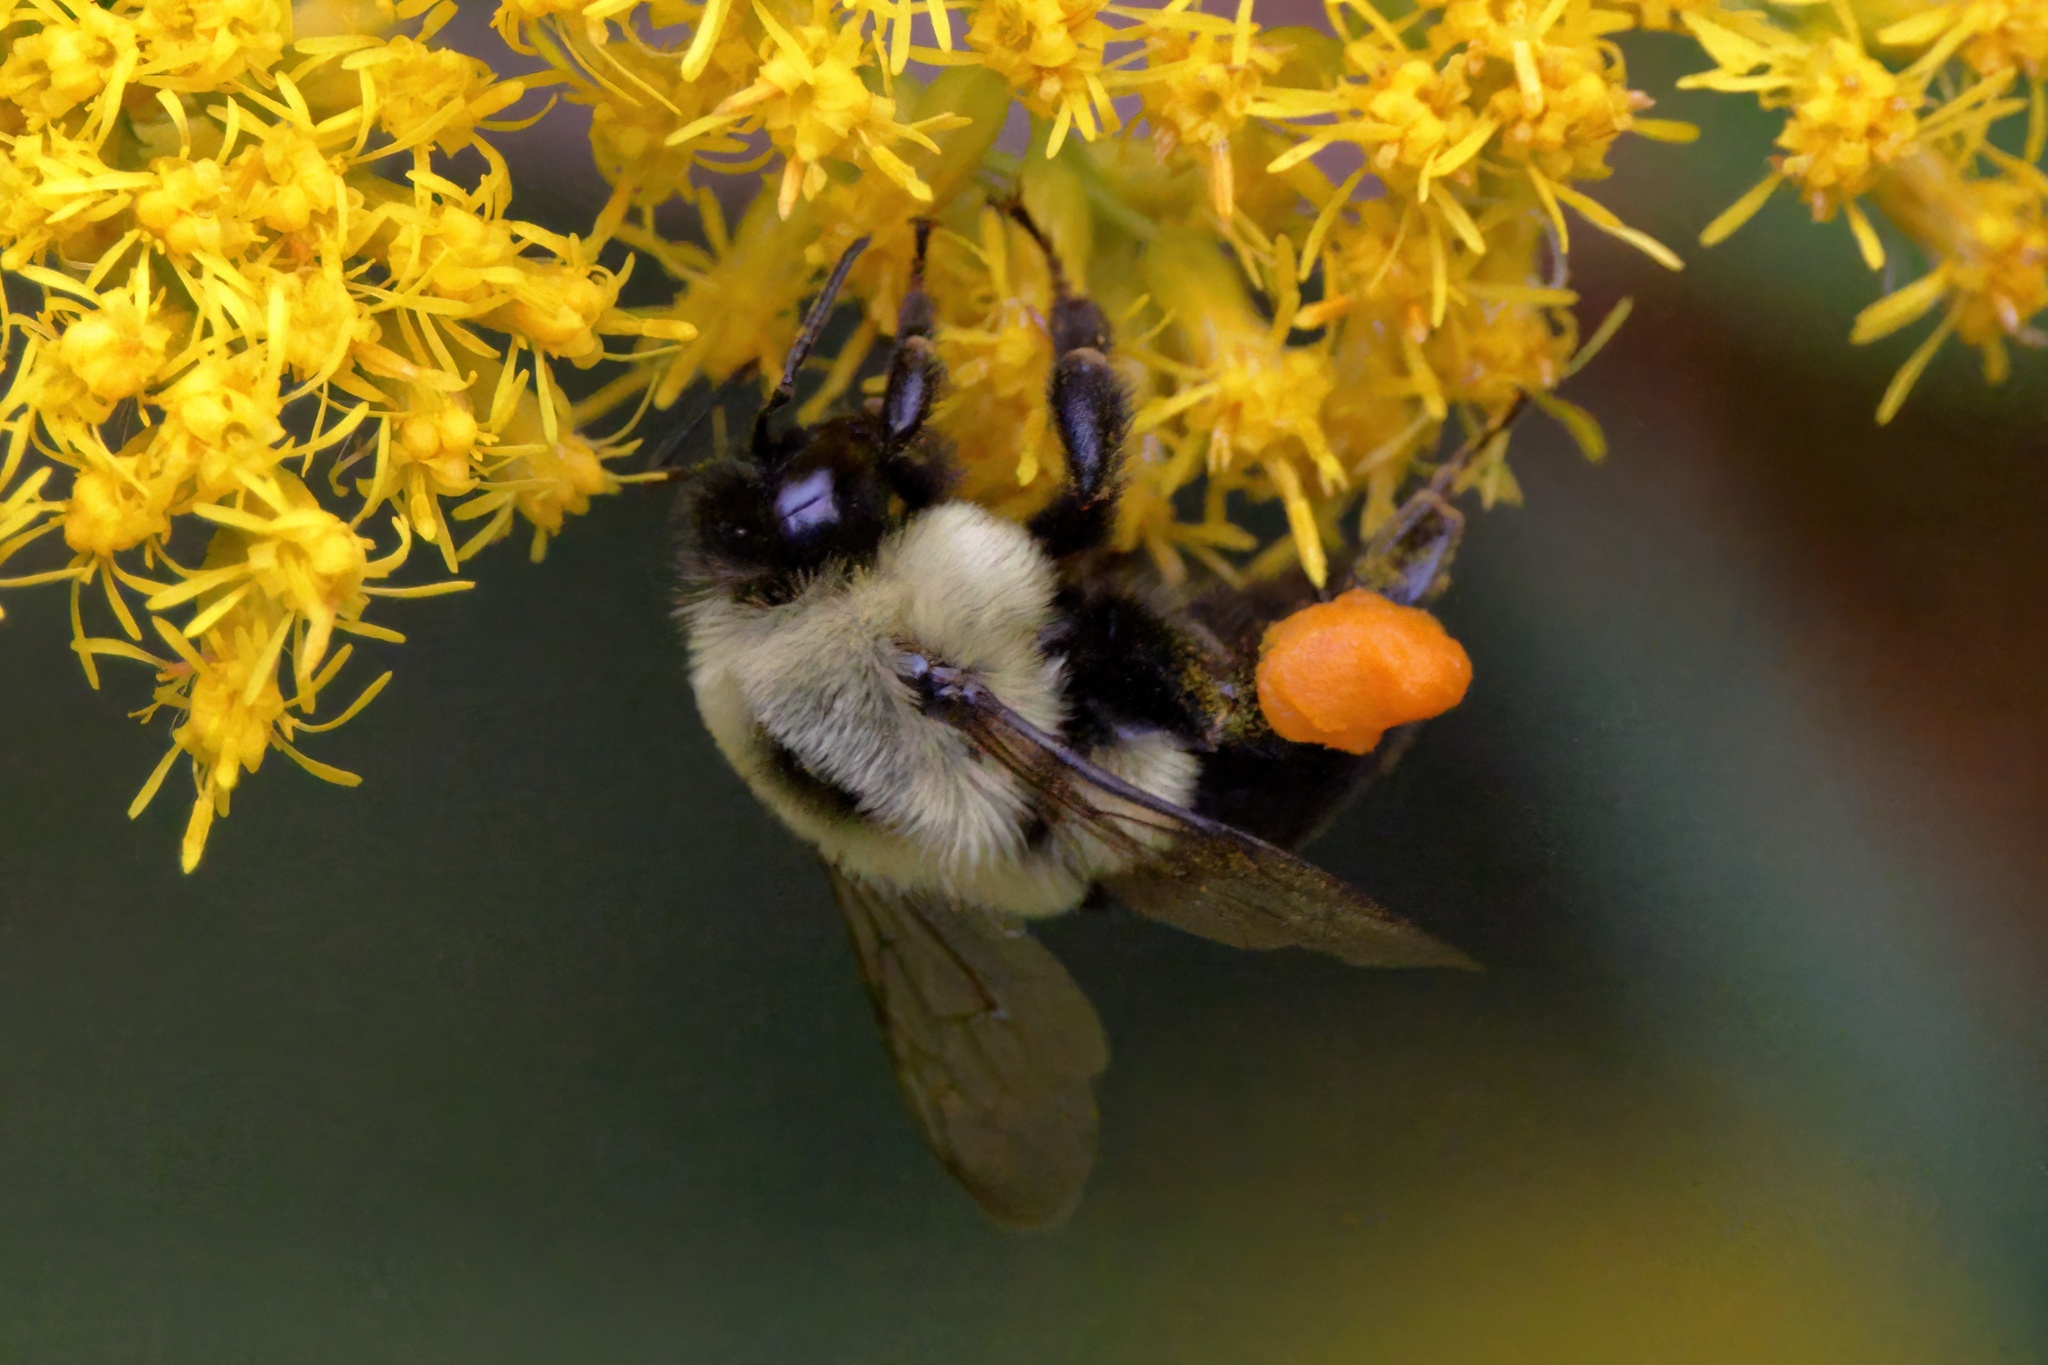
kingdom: Animalia
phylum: Arthropoda
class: Insecta
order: Hymenoptera
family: Apidae
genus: Bombus
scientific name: Bombus impatiens
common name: Common eastern bumble bee
